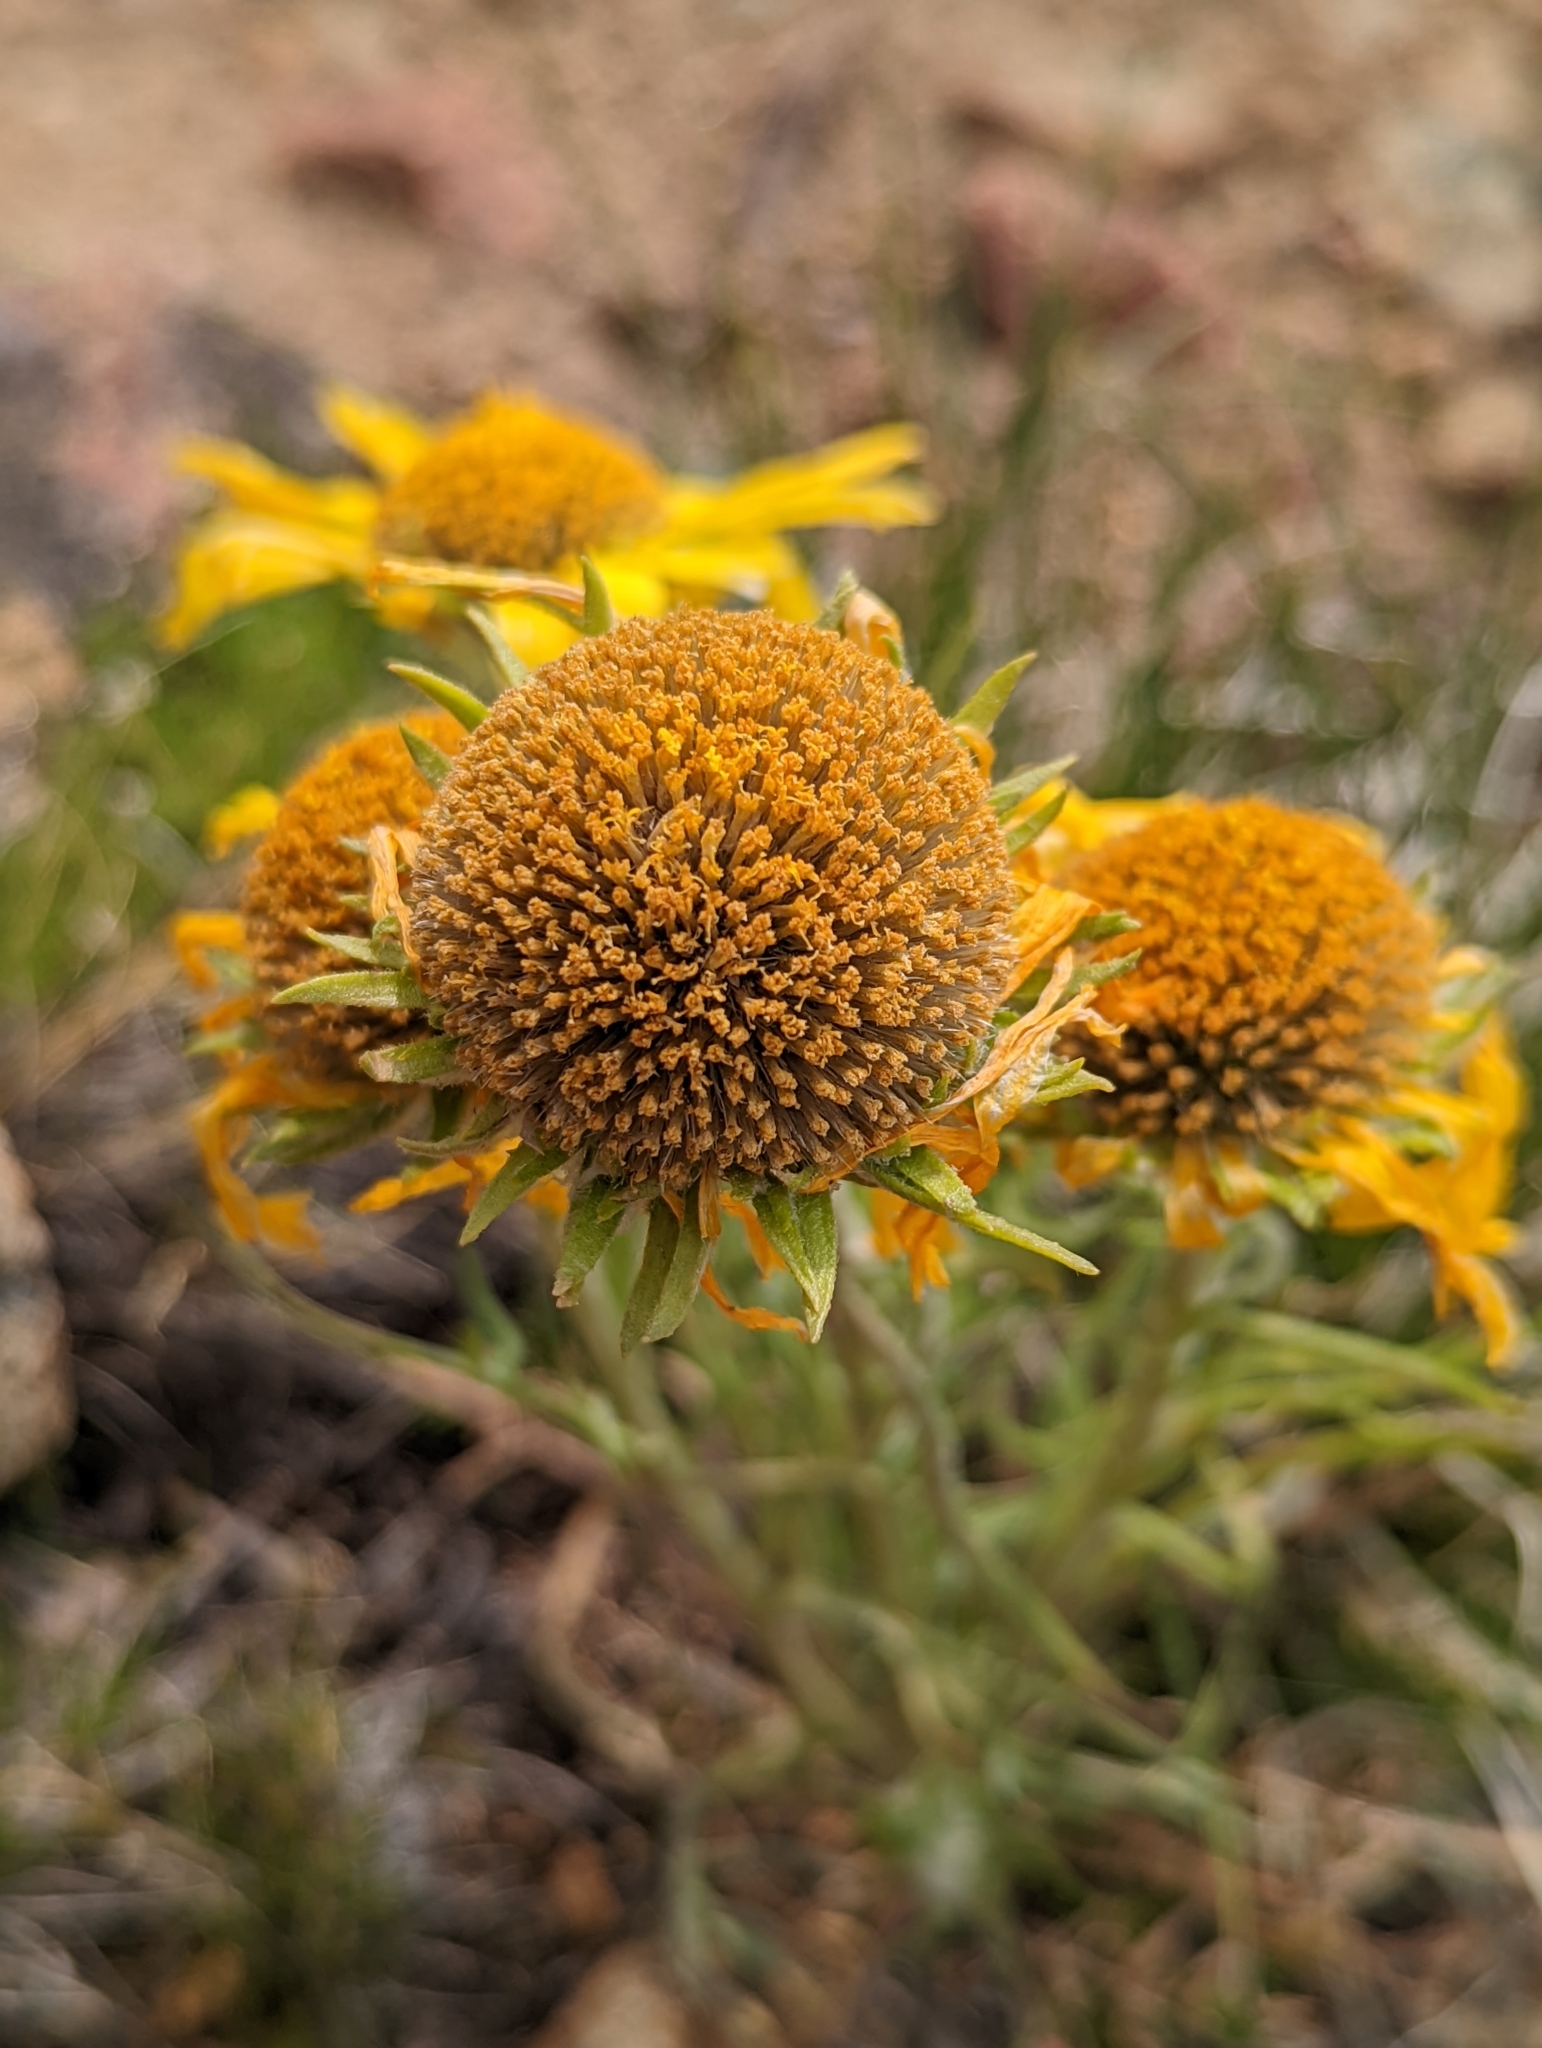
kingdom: Plantae
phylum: Tracheophyta
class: Magnoliopsida
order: Asterales
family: Asteraceae
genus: Hymenoxys
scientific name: Hymenoxys grandiflora
